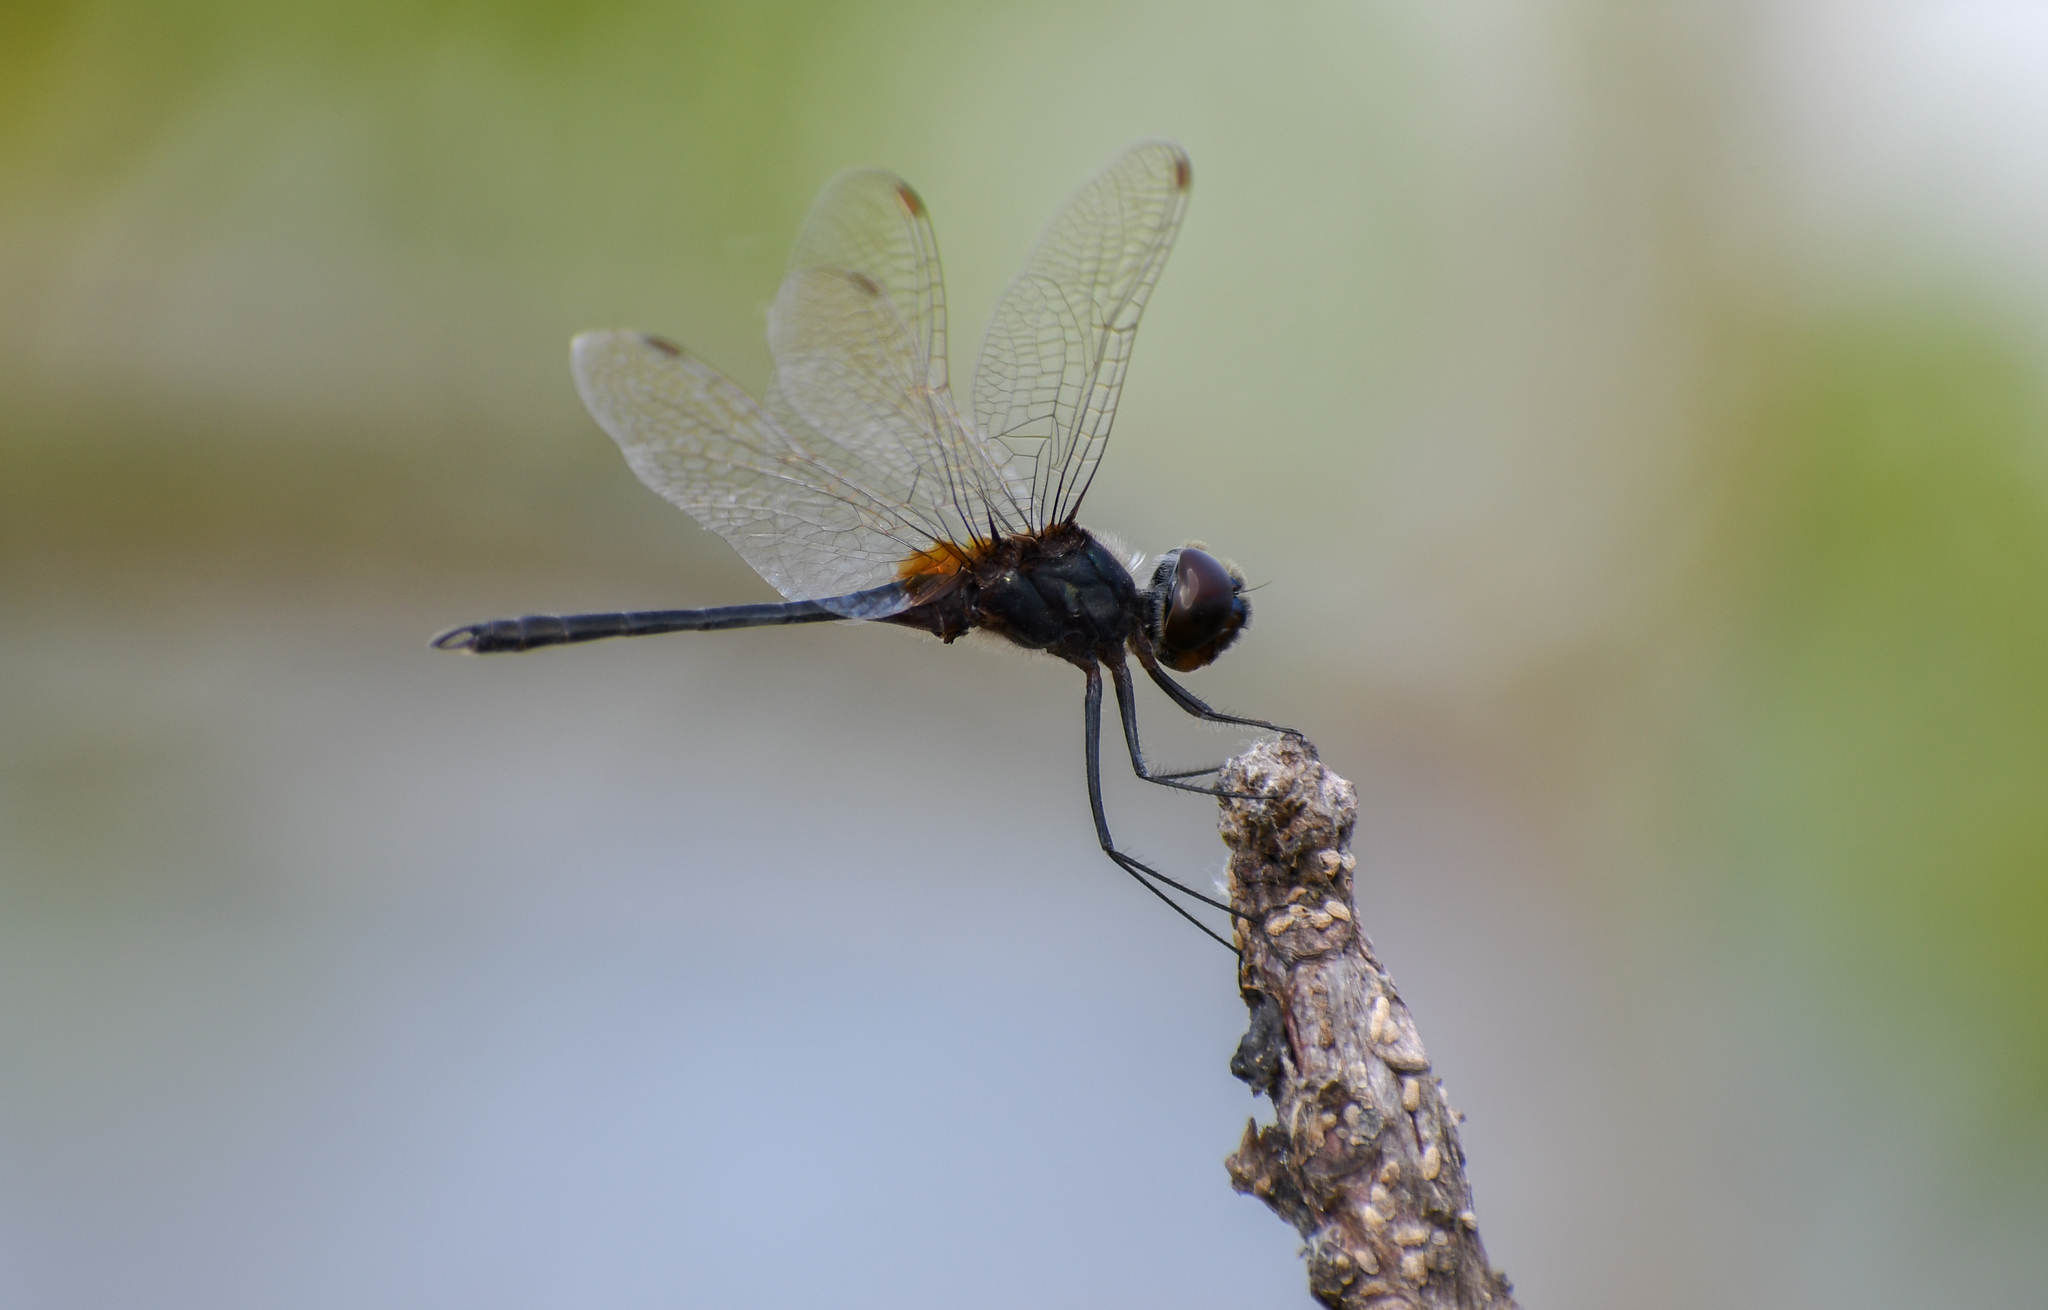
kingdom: Animalia
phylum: Arthropoda
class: Insecta
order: Odonata
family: Libellulidae
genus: Idiataphe
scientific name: Idiataphe amazonica
